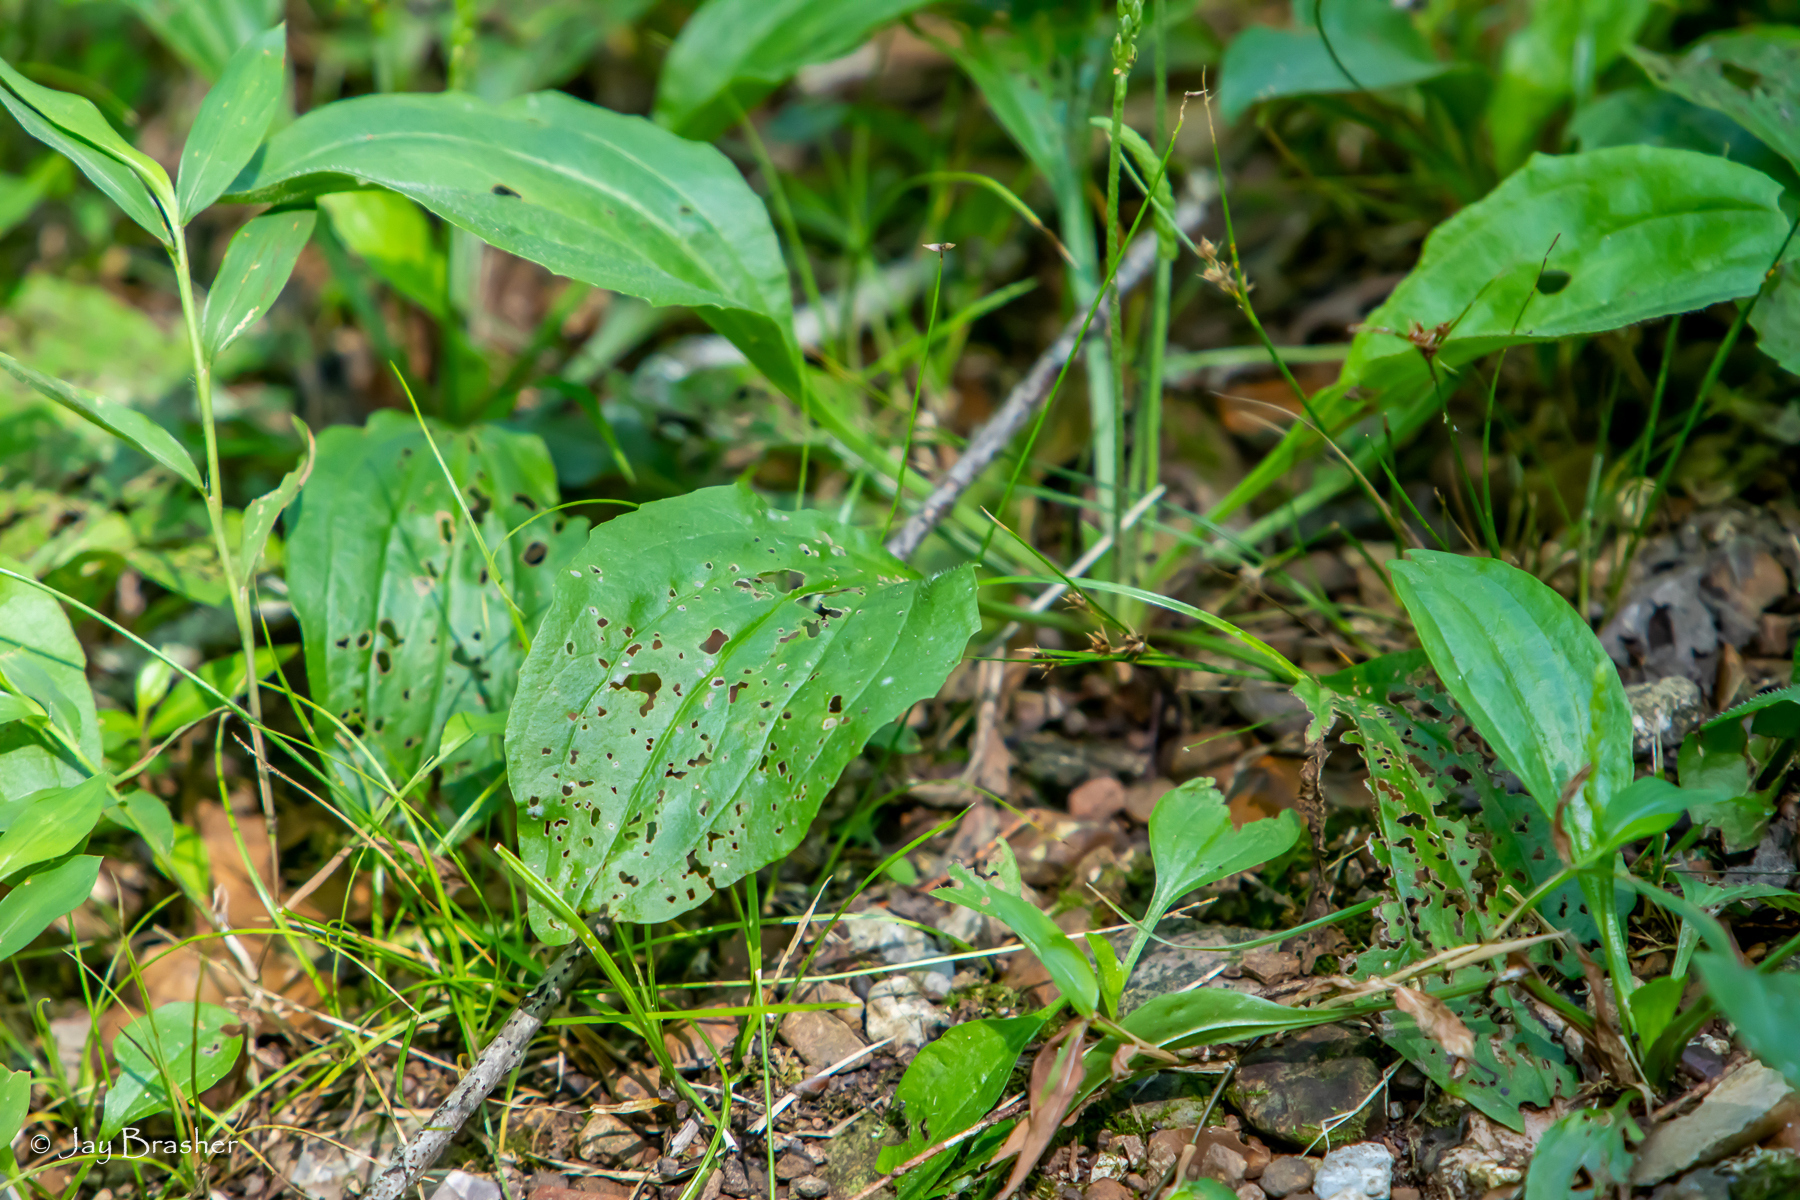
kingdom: Plantae
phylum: Tracheophyta
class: Magnoliopsida
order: Lamiales
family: Plantaginaceae
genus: Plantago
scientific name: Plantago rugelii
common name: American plantain
